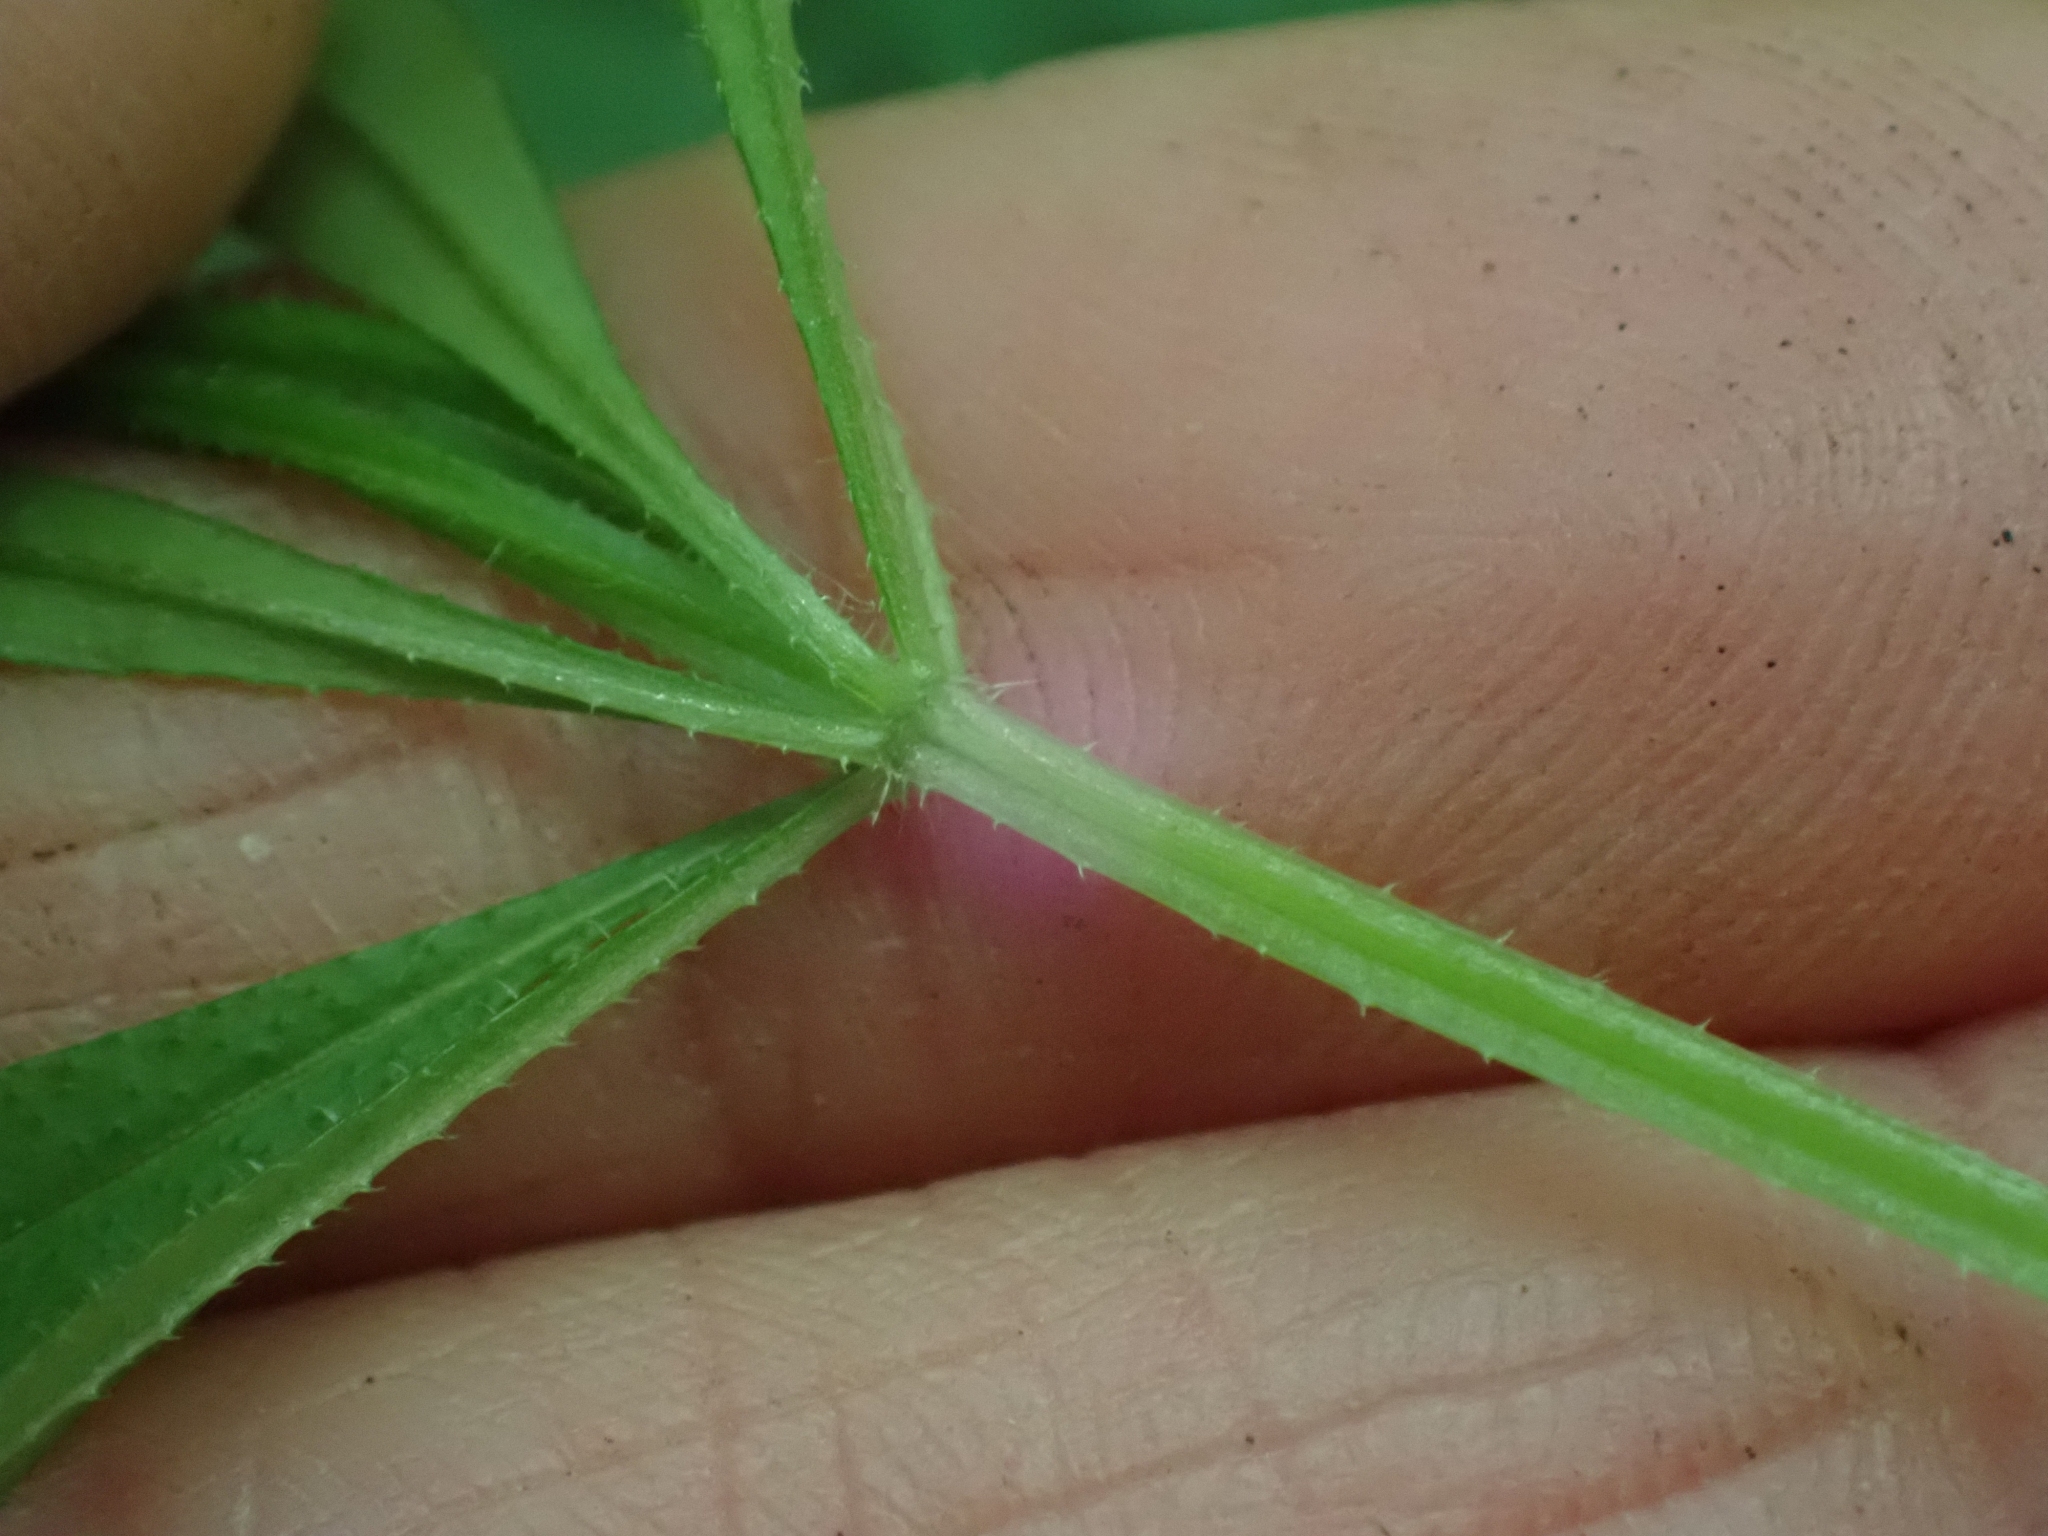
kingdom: Plantae
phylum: Tracheophyta
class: Magnoliopsida
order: Gentianales
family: Rubiaceae
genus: Galium
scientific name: Galium aparine
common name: Cleavers
